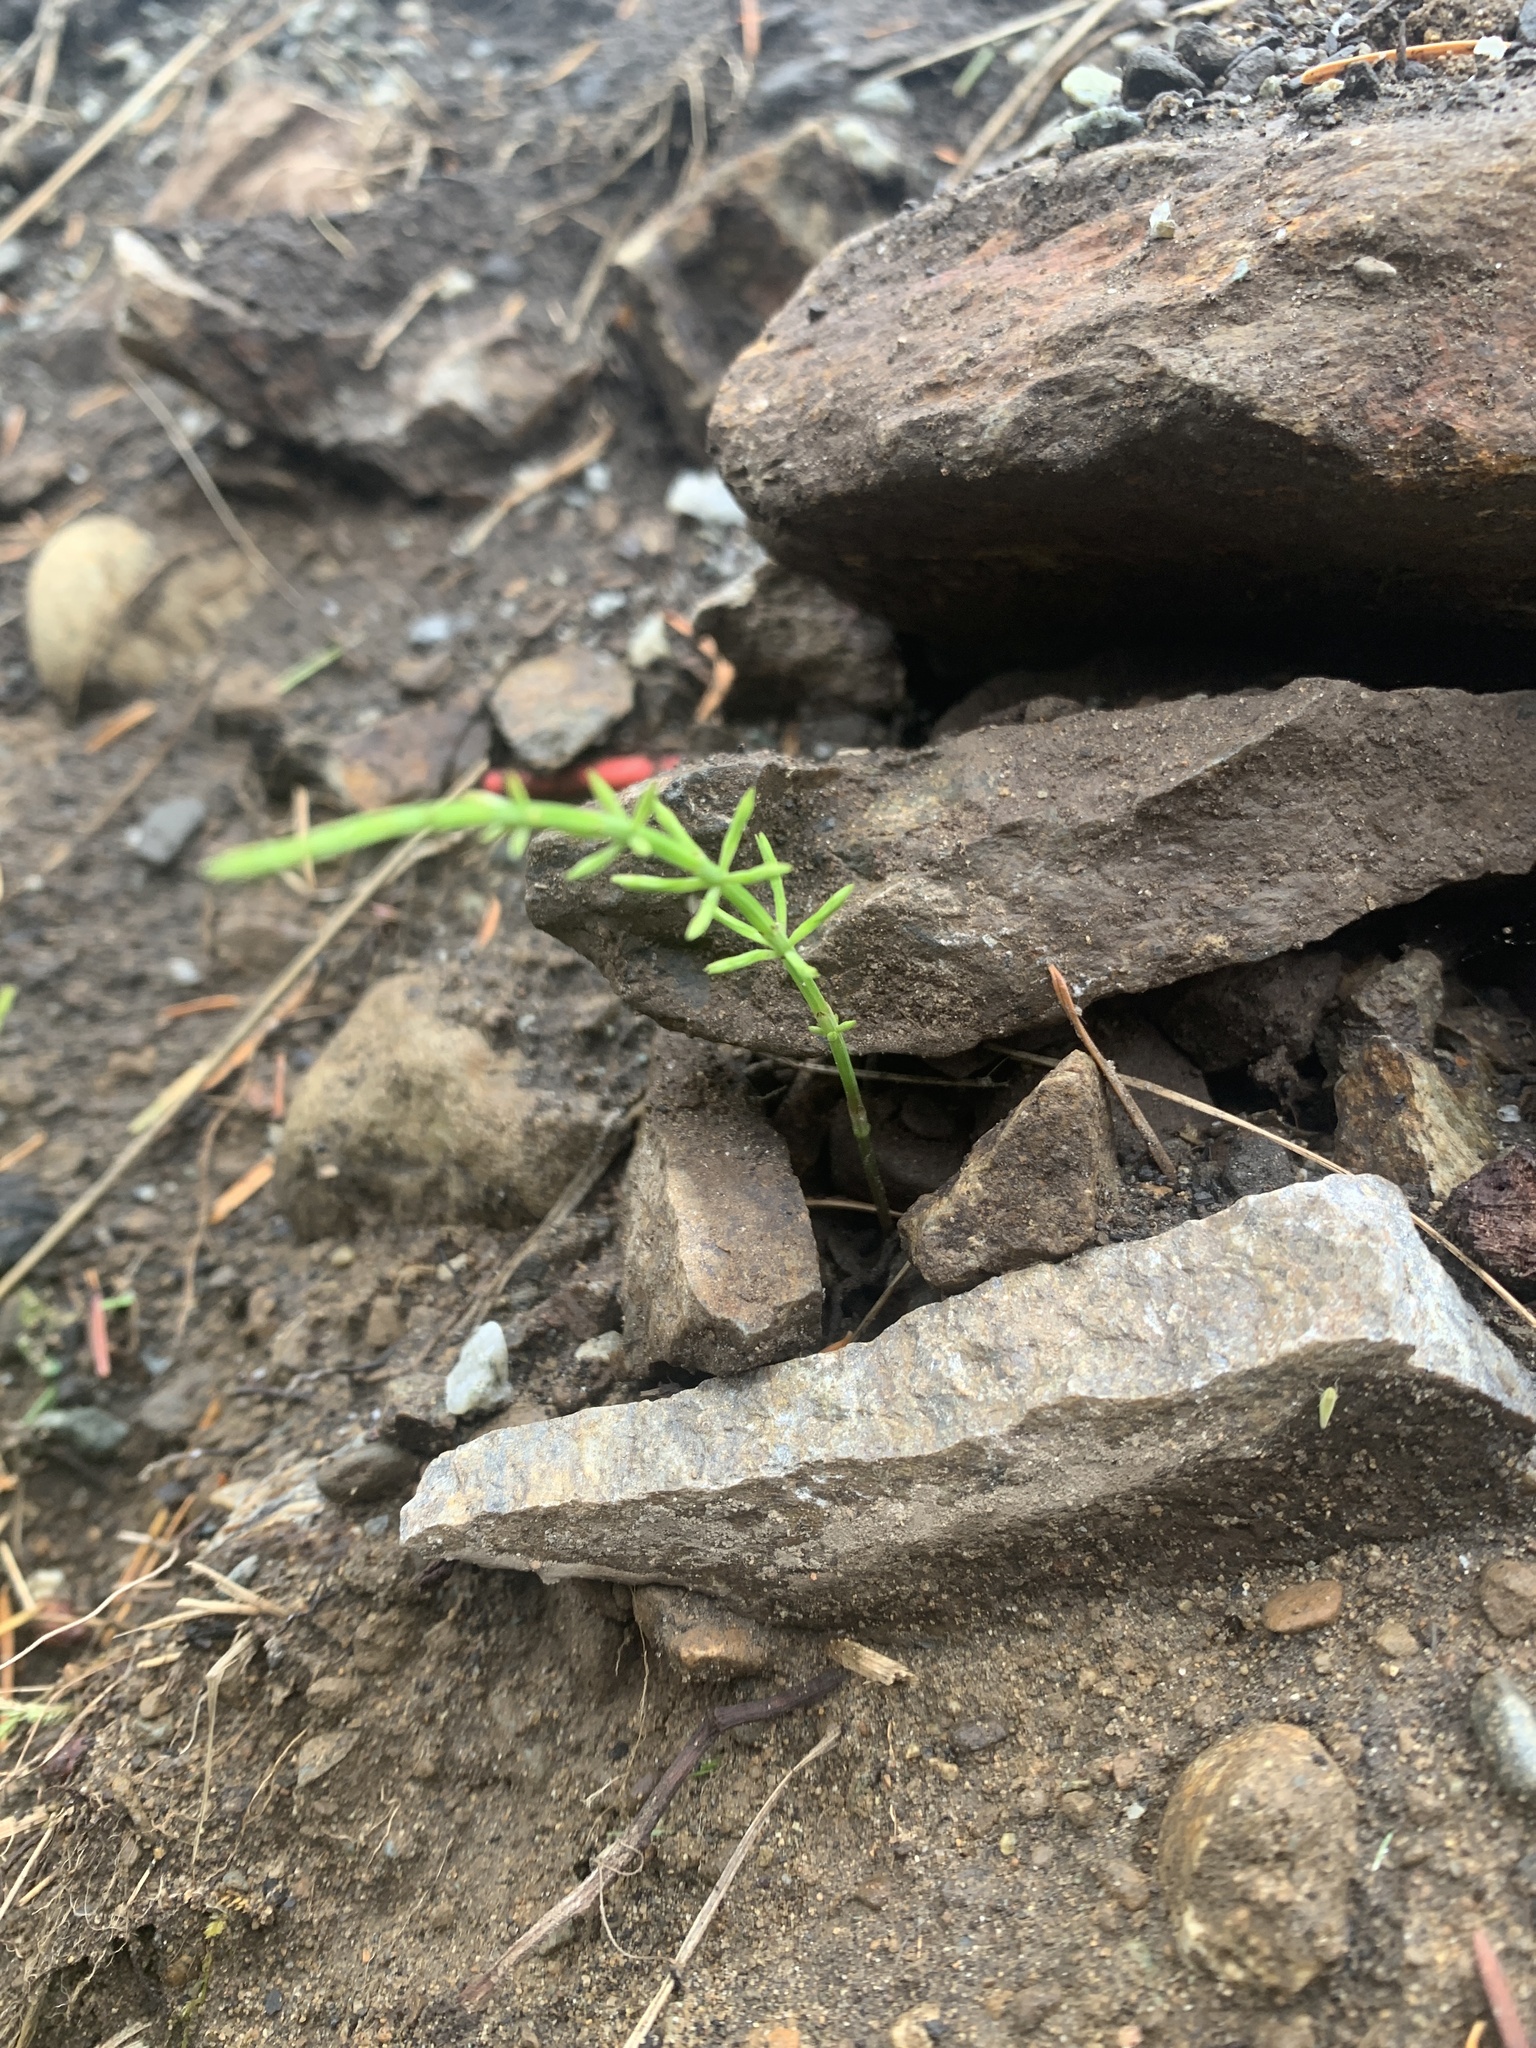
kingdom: Plantae
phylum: Tracheophyta
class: Polypodiopsida
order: Equisetales
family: Equisetaceae
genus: Equisetum
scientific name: Equisetum arvense
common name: Field horsetail
